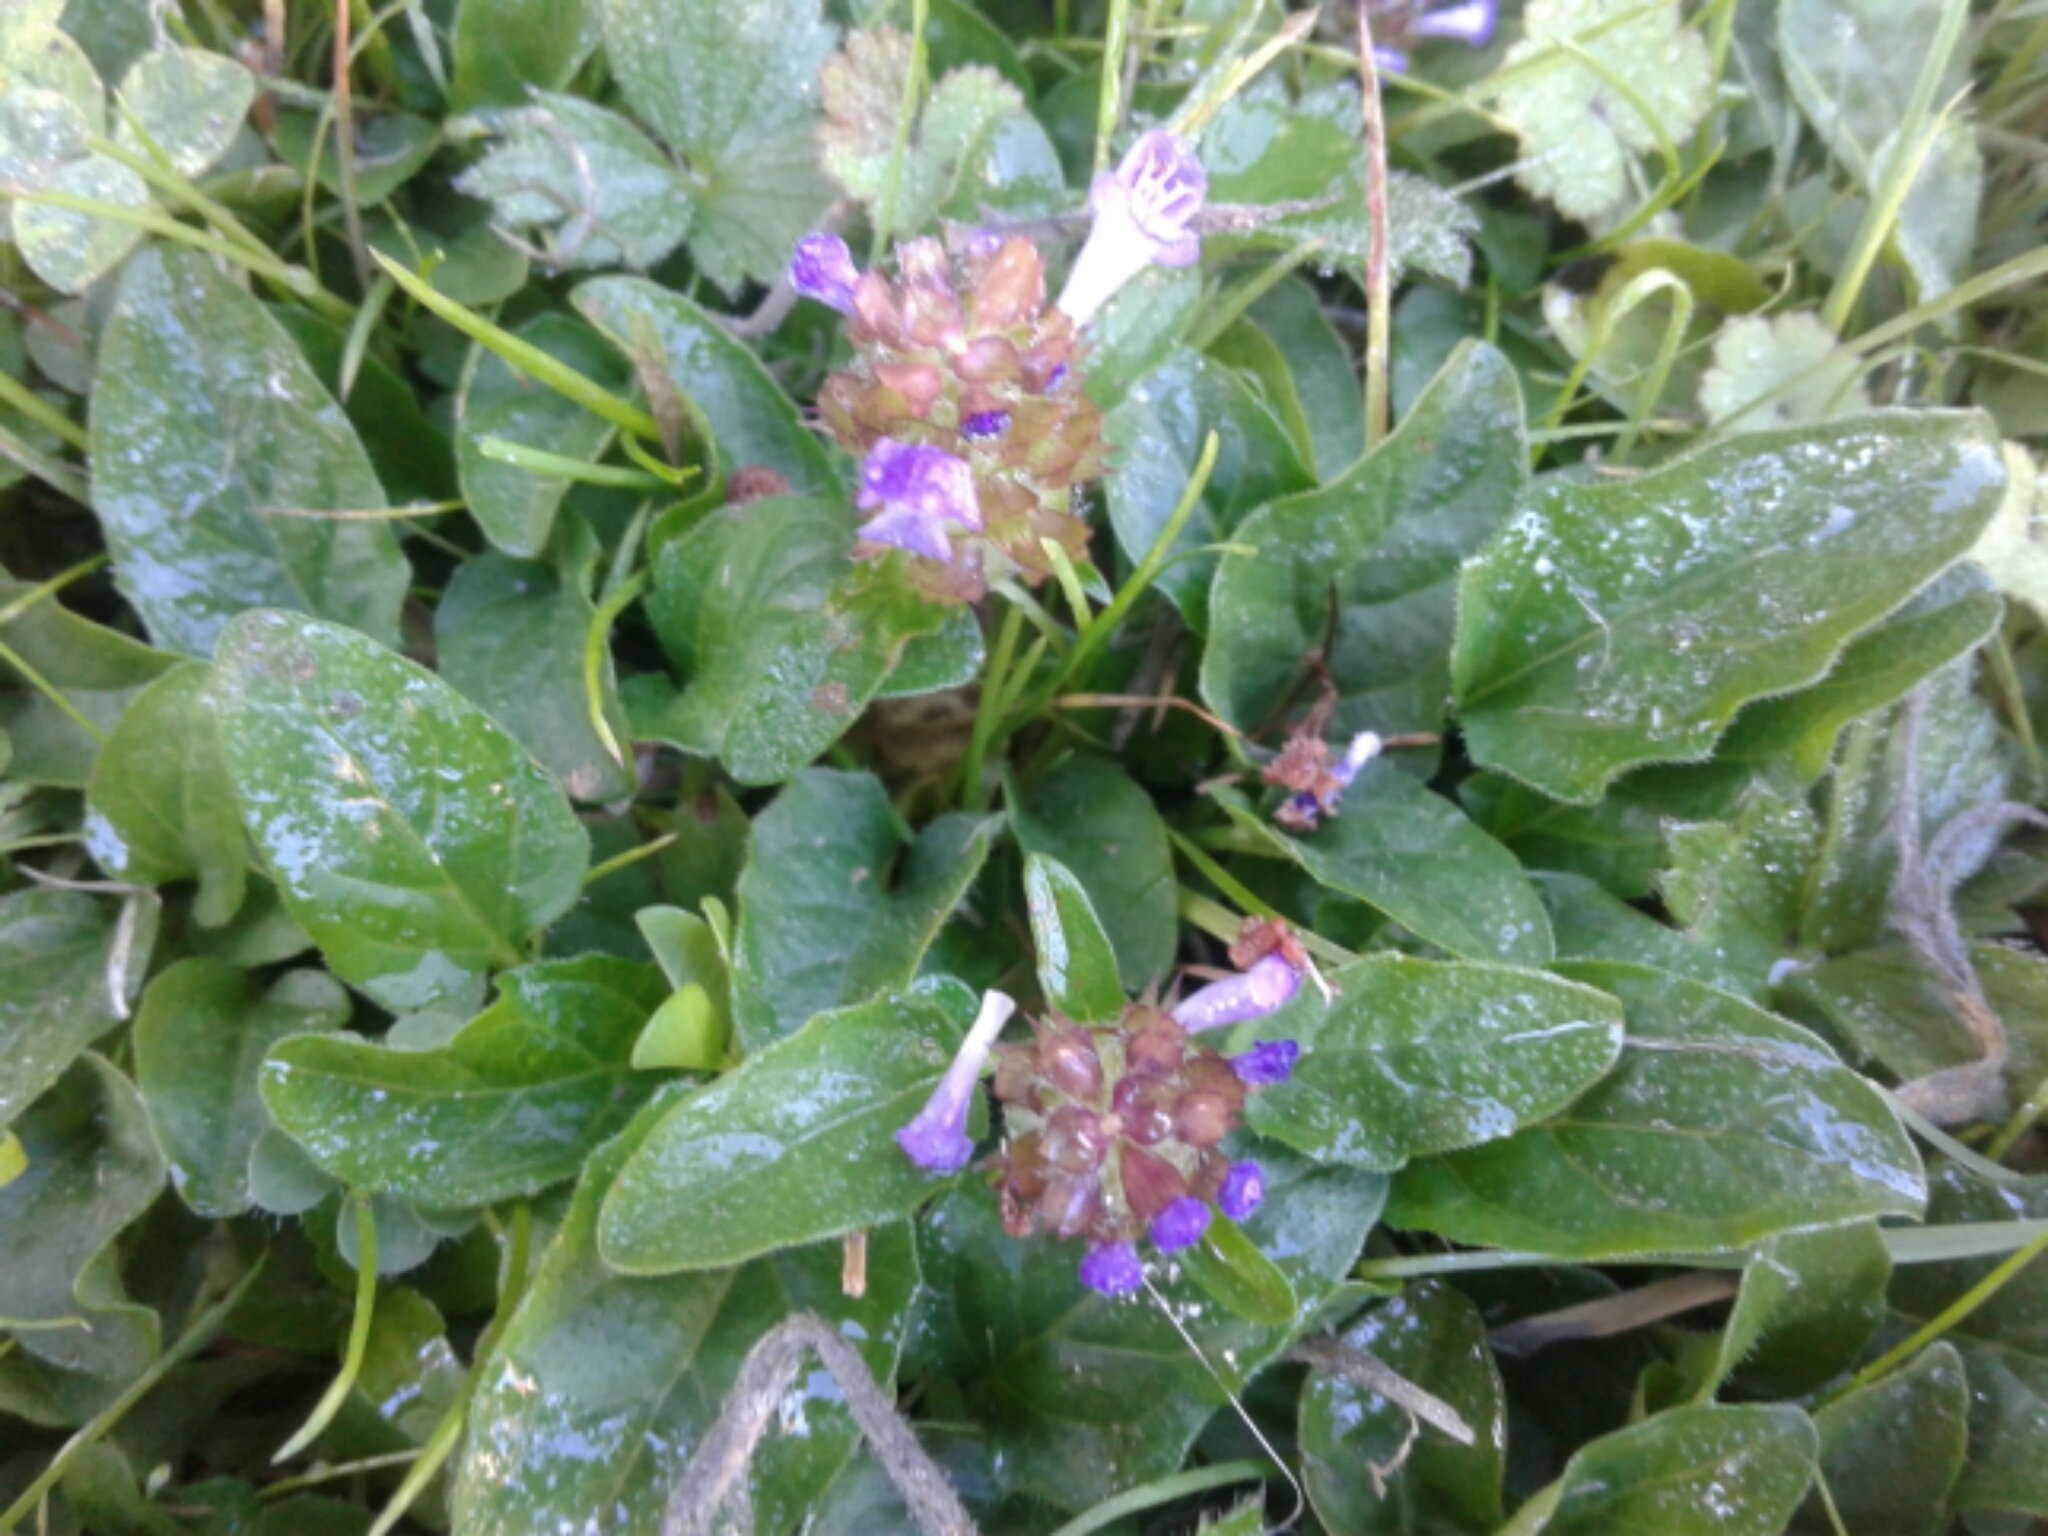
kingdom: Plantae
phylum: Tracheophyta
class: Magnoliopsida
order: Lamiales
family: Lamiaceae
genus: Prunella
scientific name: Prunella vulgaris
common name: Heal-all
